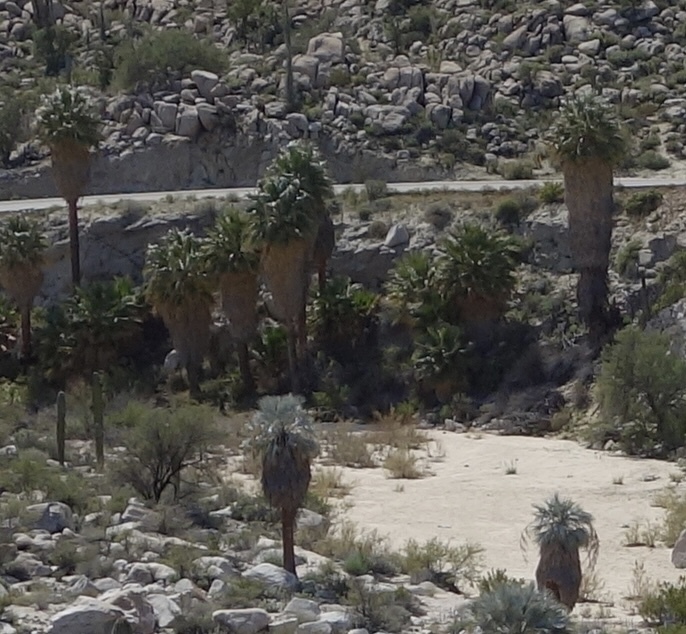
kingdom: Plantae
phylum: Tracheophyta
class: Liliopsida
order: Arecales
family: Arecaceae
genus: Brahea
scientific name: Brahea armata
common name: Mexican blue palm
